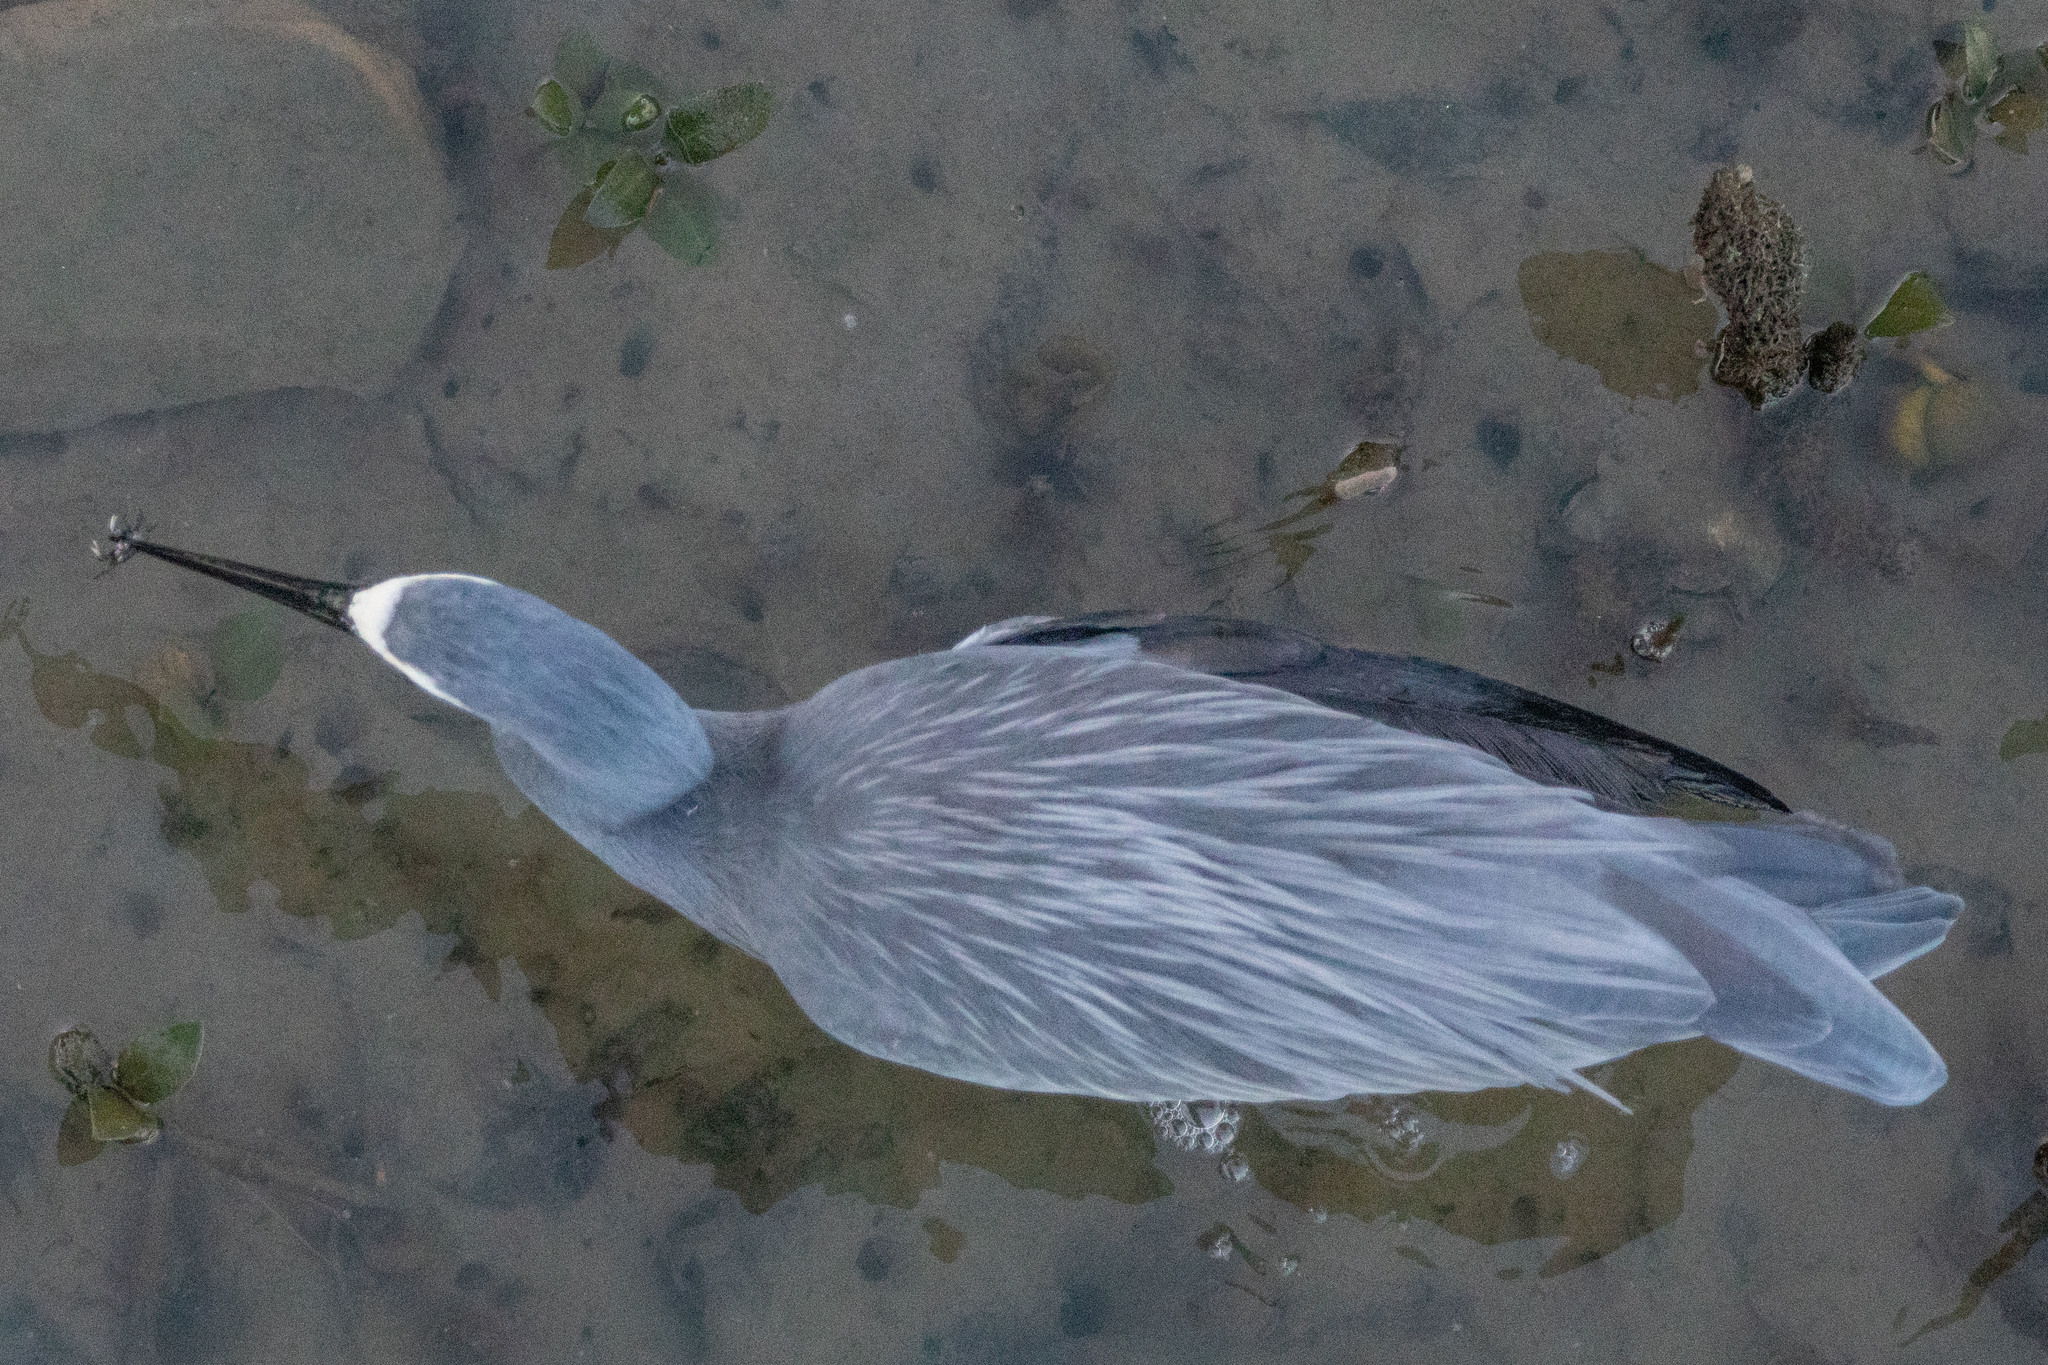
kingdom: Animalia
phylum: Chordata
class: Aves
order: Pelecaniformes
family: Ardeidae
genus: Egretta
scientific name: Egretta novaehollandiae
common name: White-faced heron
